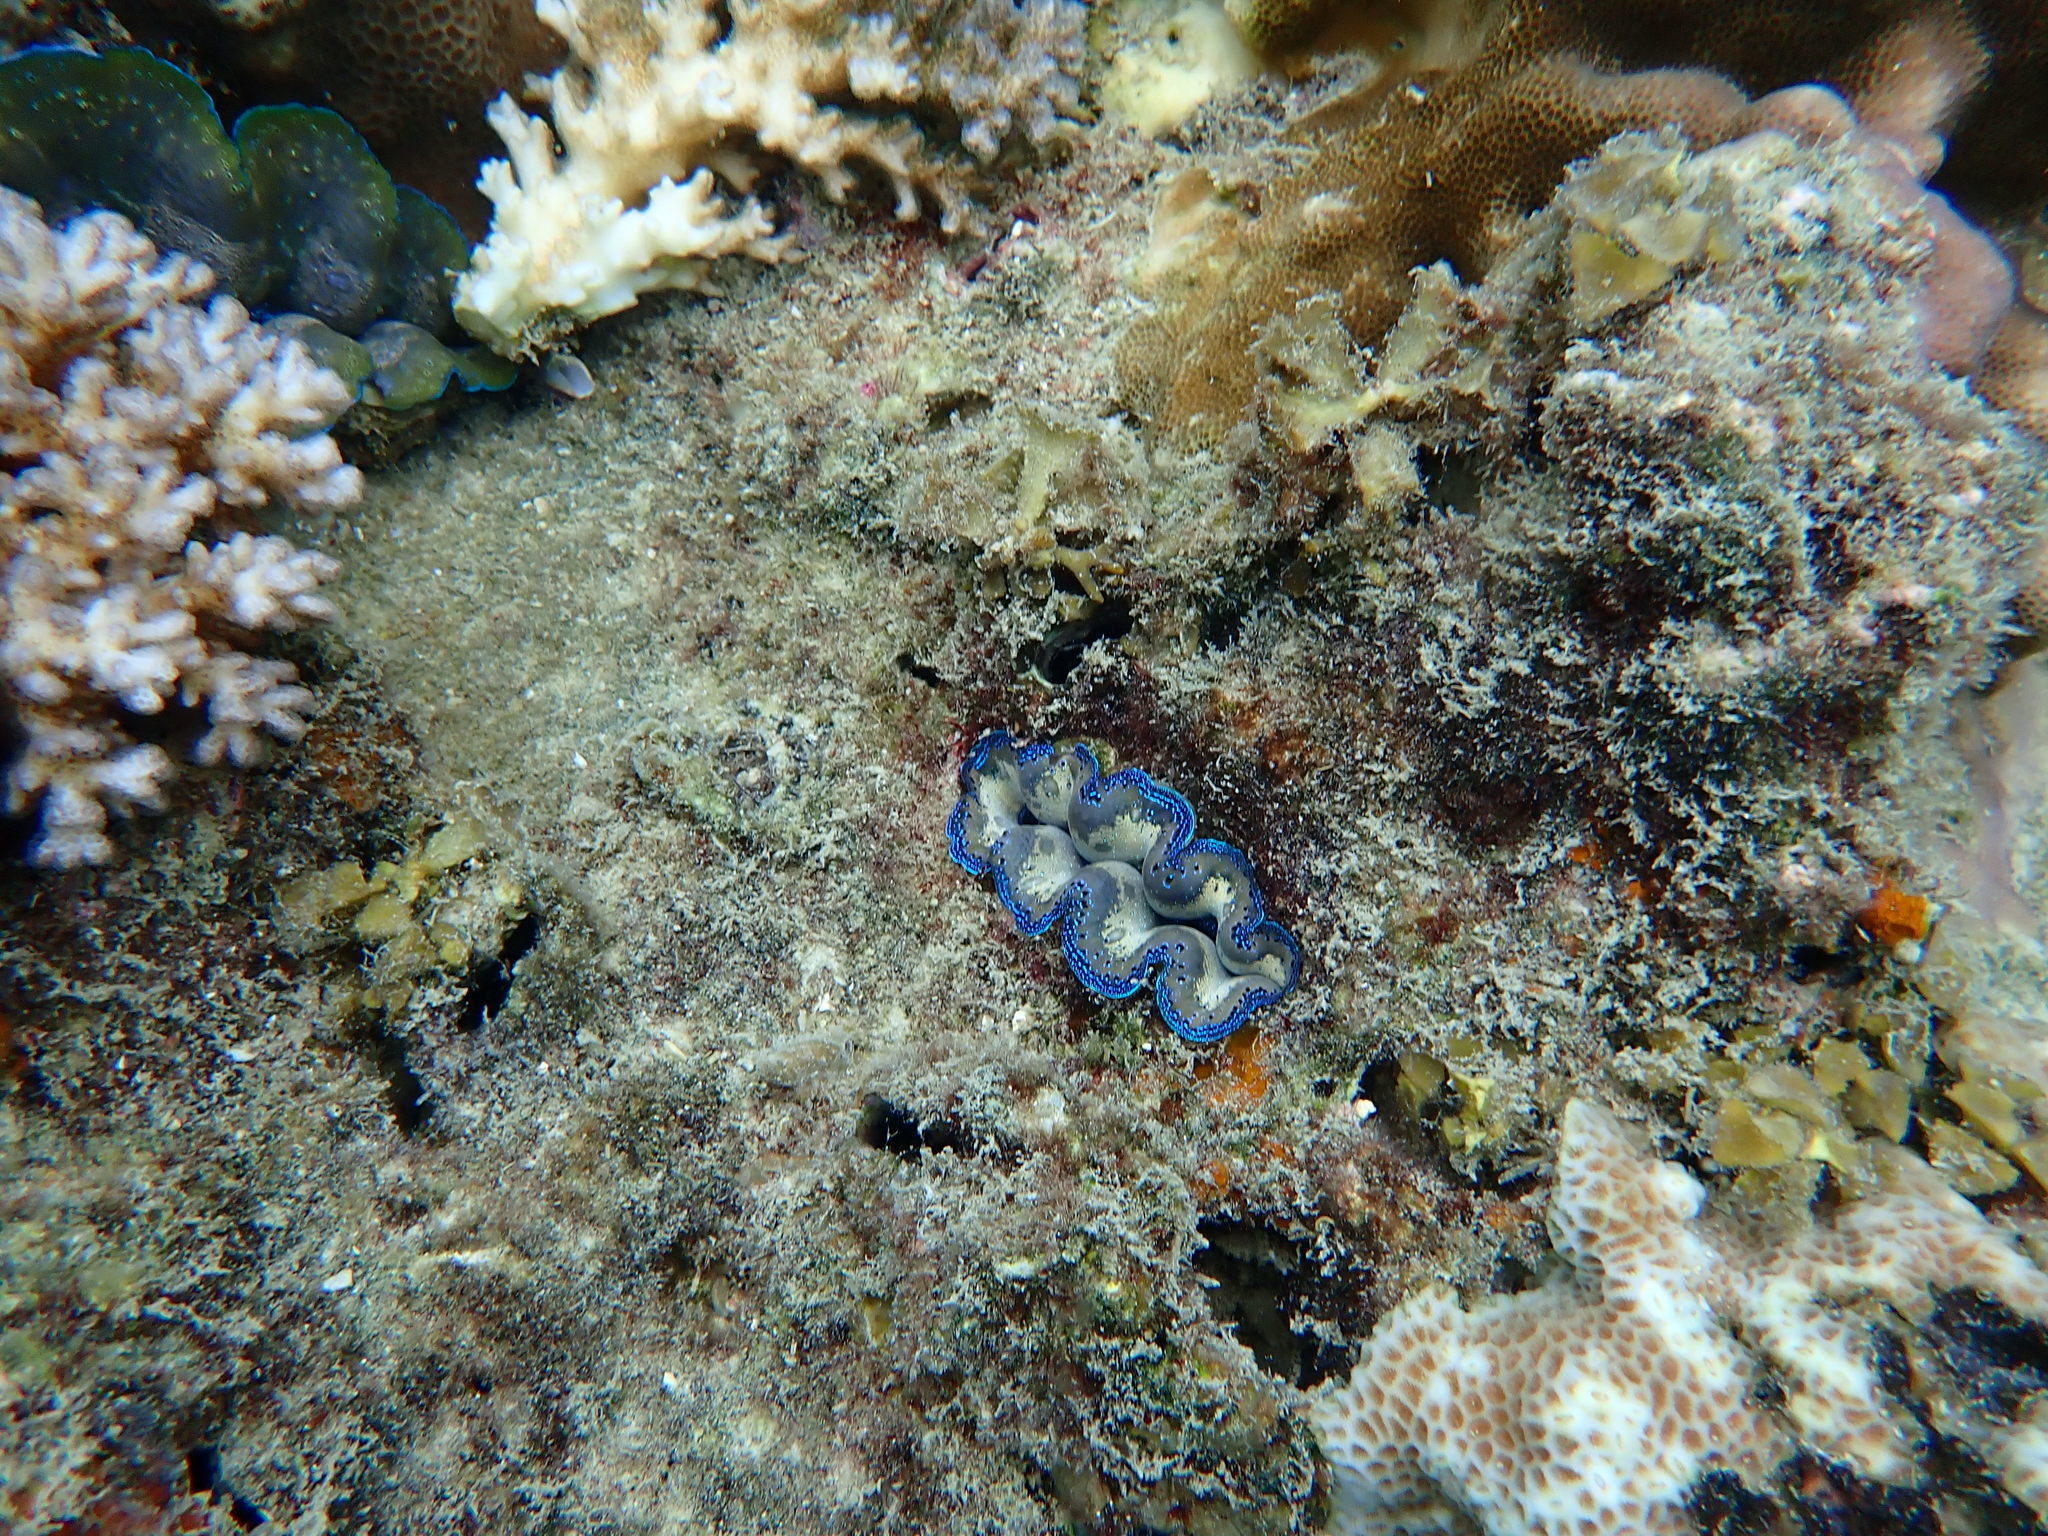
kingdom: Animalia
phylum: Mollusca
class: Bivalvia
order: Cardiida
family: Cardiidae
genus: Tridacna
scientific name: Tridacna crocea
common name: Boring clam
